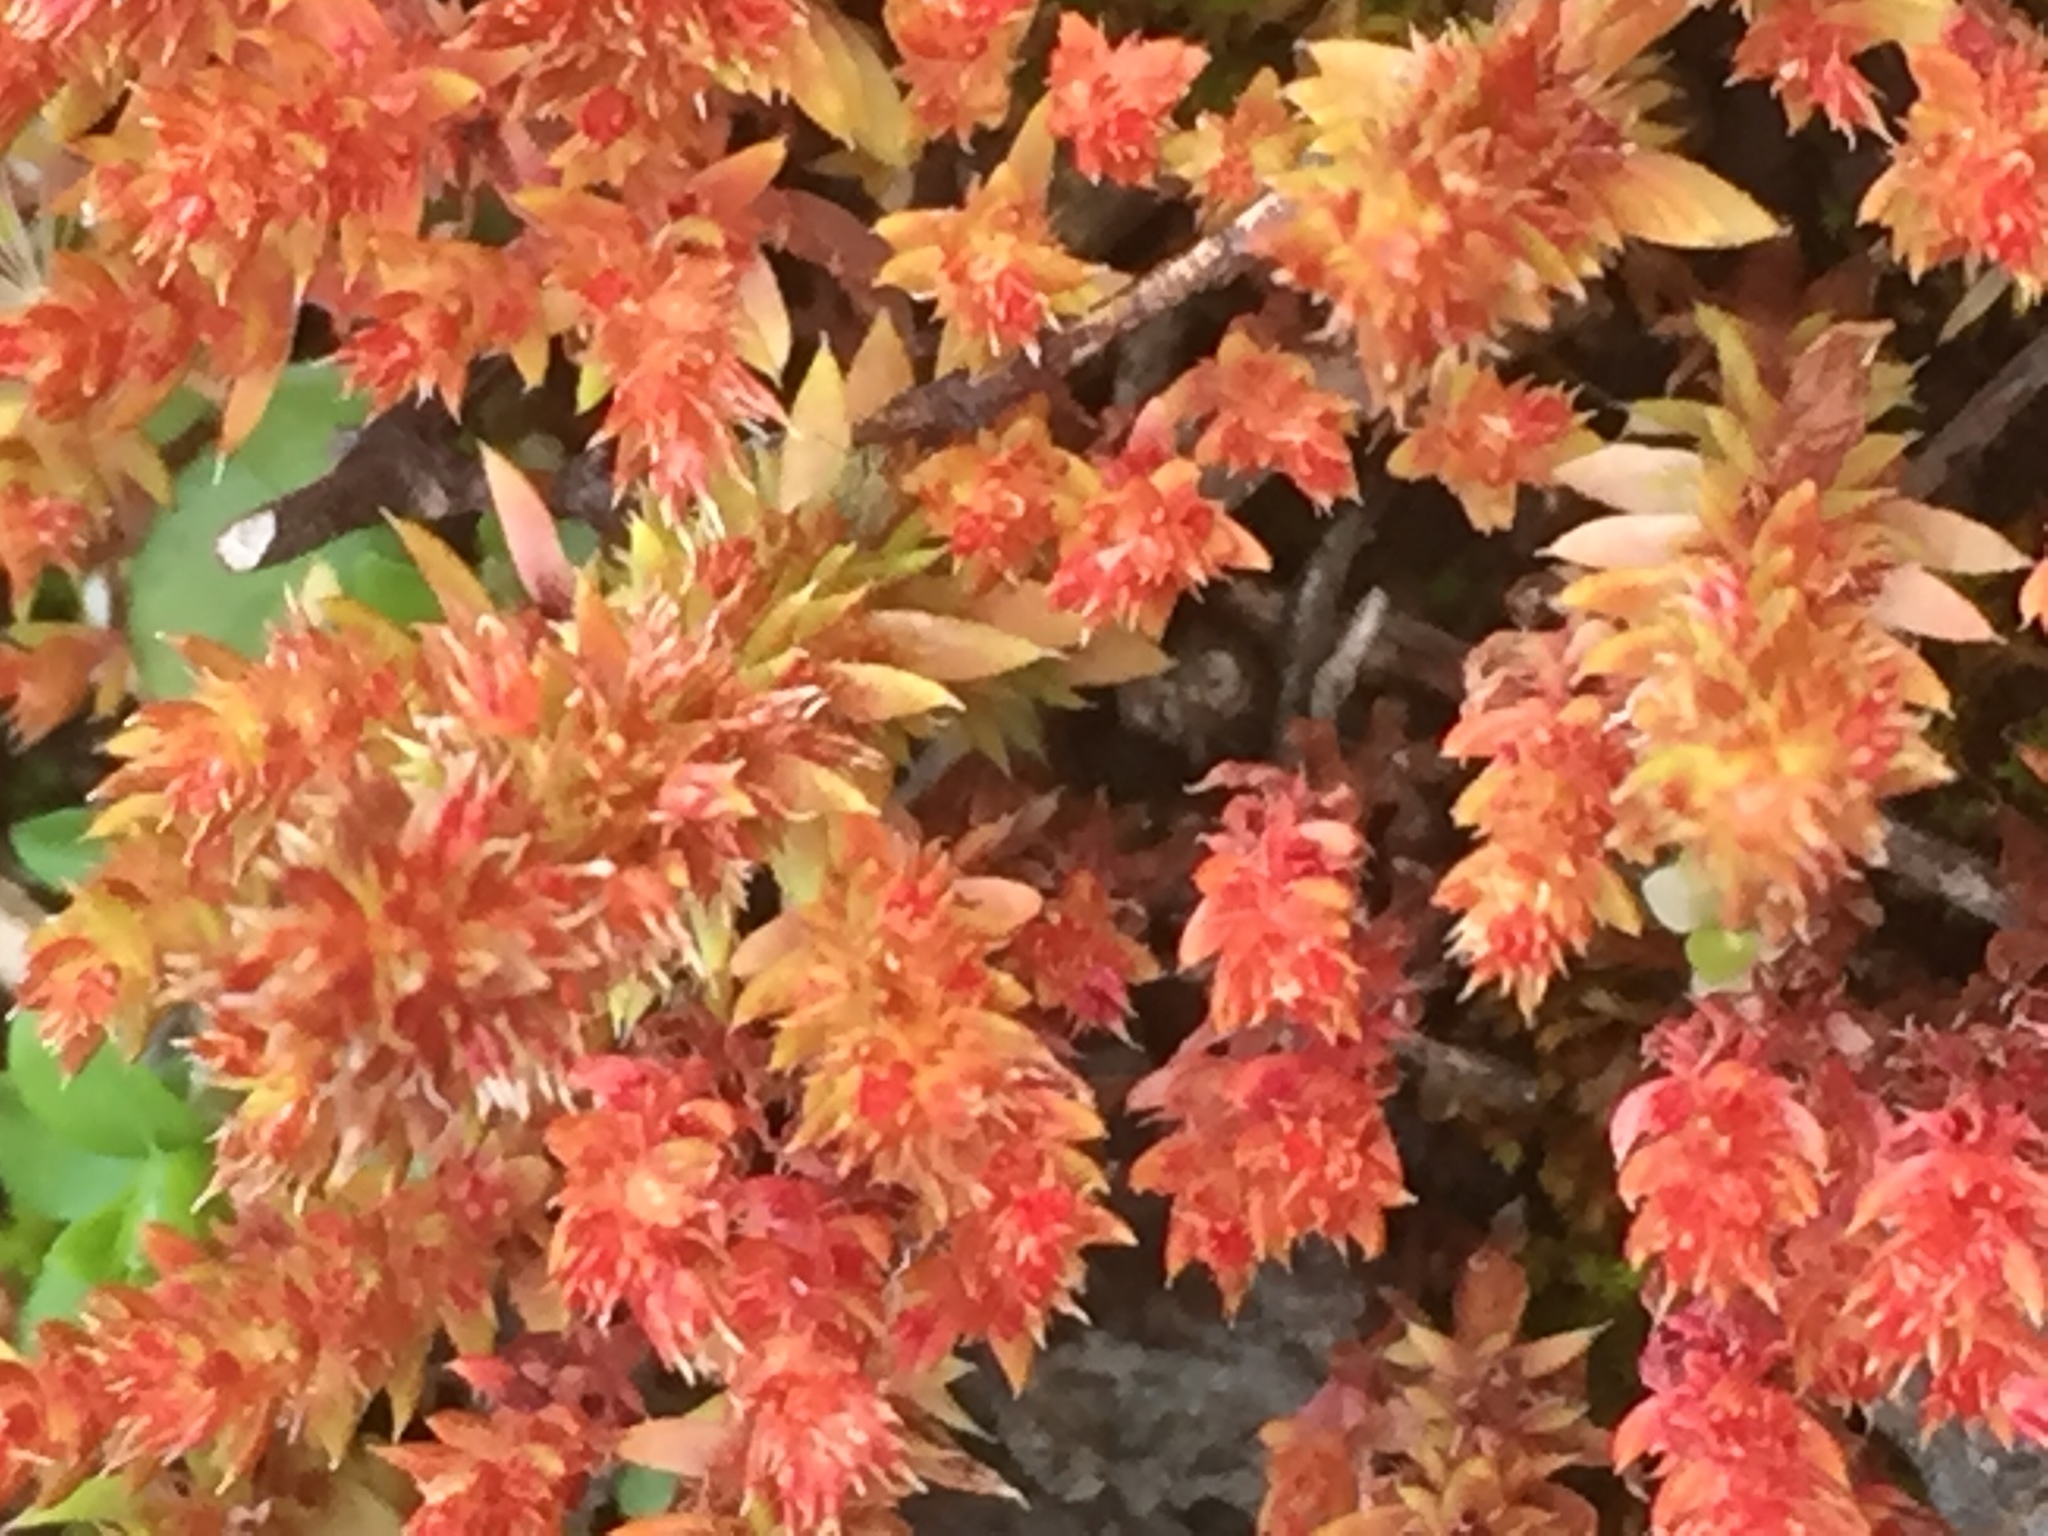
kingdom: Plantae
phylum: Tracheophyta
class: Magnoliopsida
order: Saxifragales
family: Crassulaceae
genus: Crassula
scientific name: Crassula tillaea
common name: Mossy stonecrop
